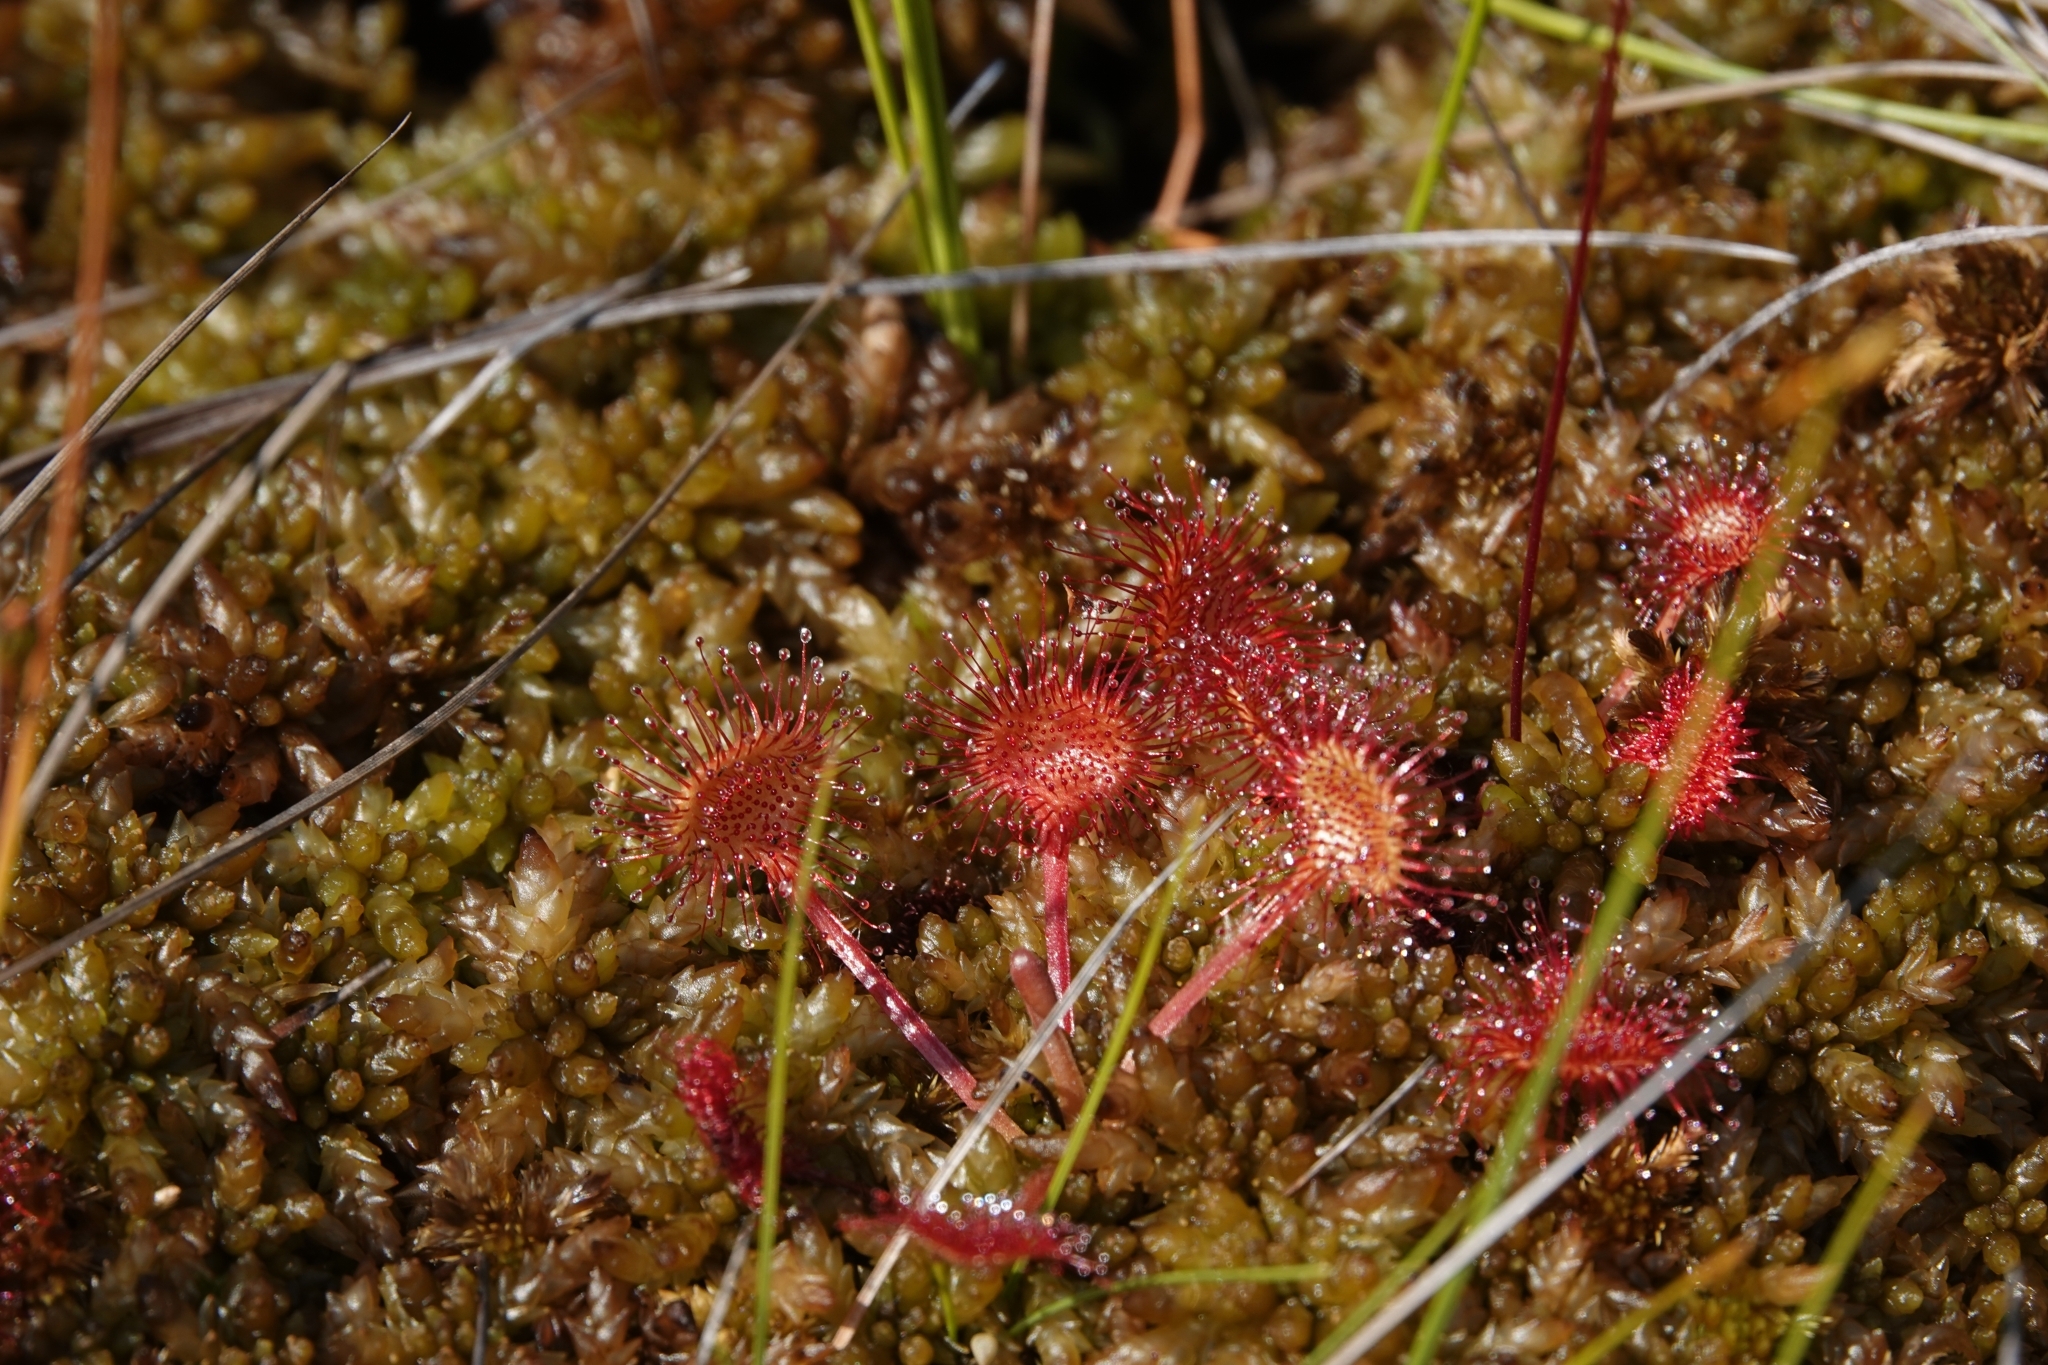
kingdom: Plantae
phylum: Tracheophyta
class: Magnoliopsida
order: Caryophyllales
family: Droseraceae
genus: Drosera
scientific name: Drosera rotundifolia
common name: Round-leaved sundew
